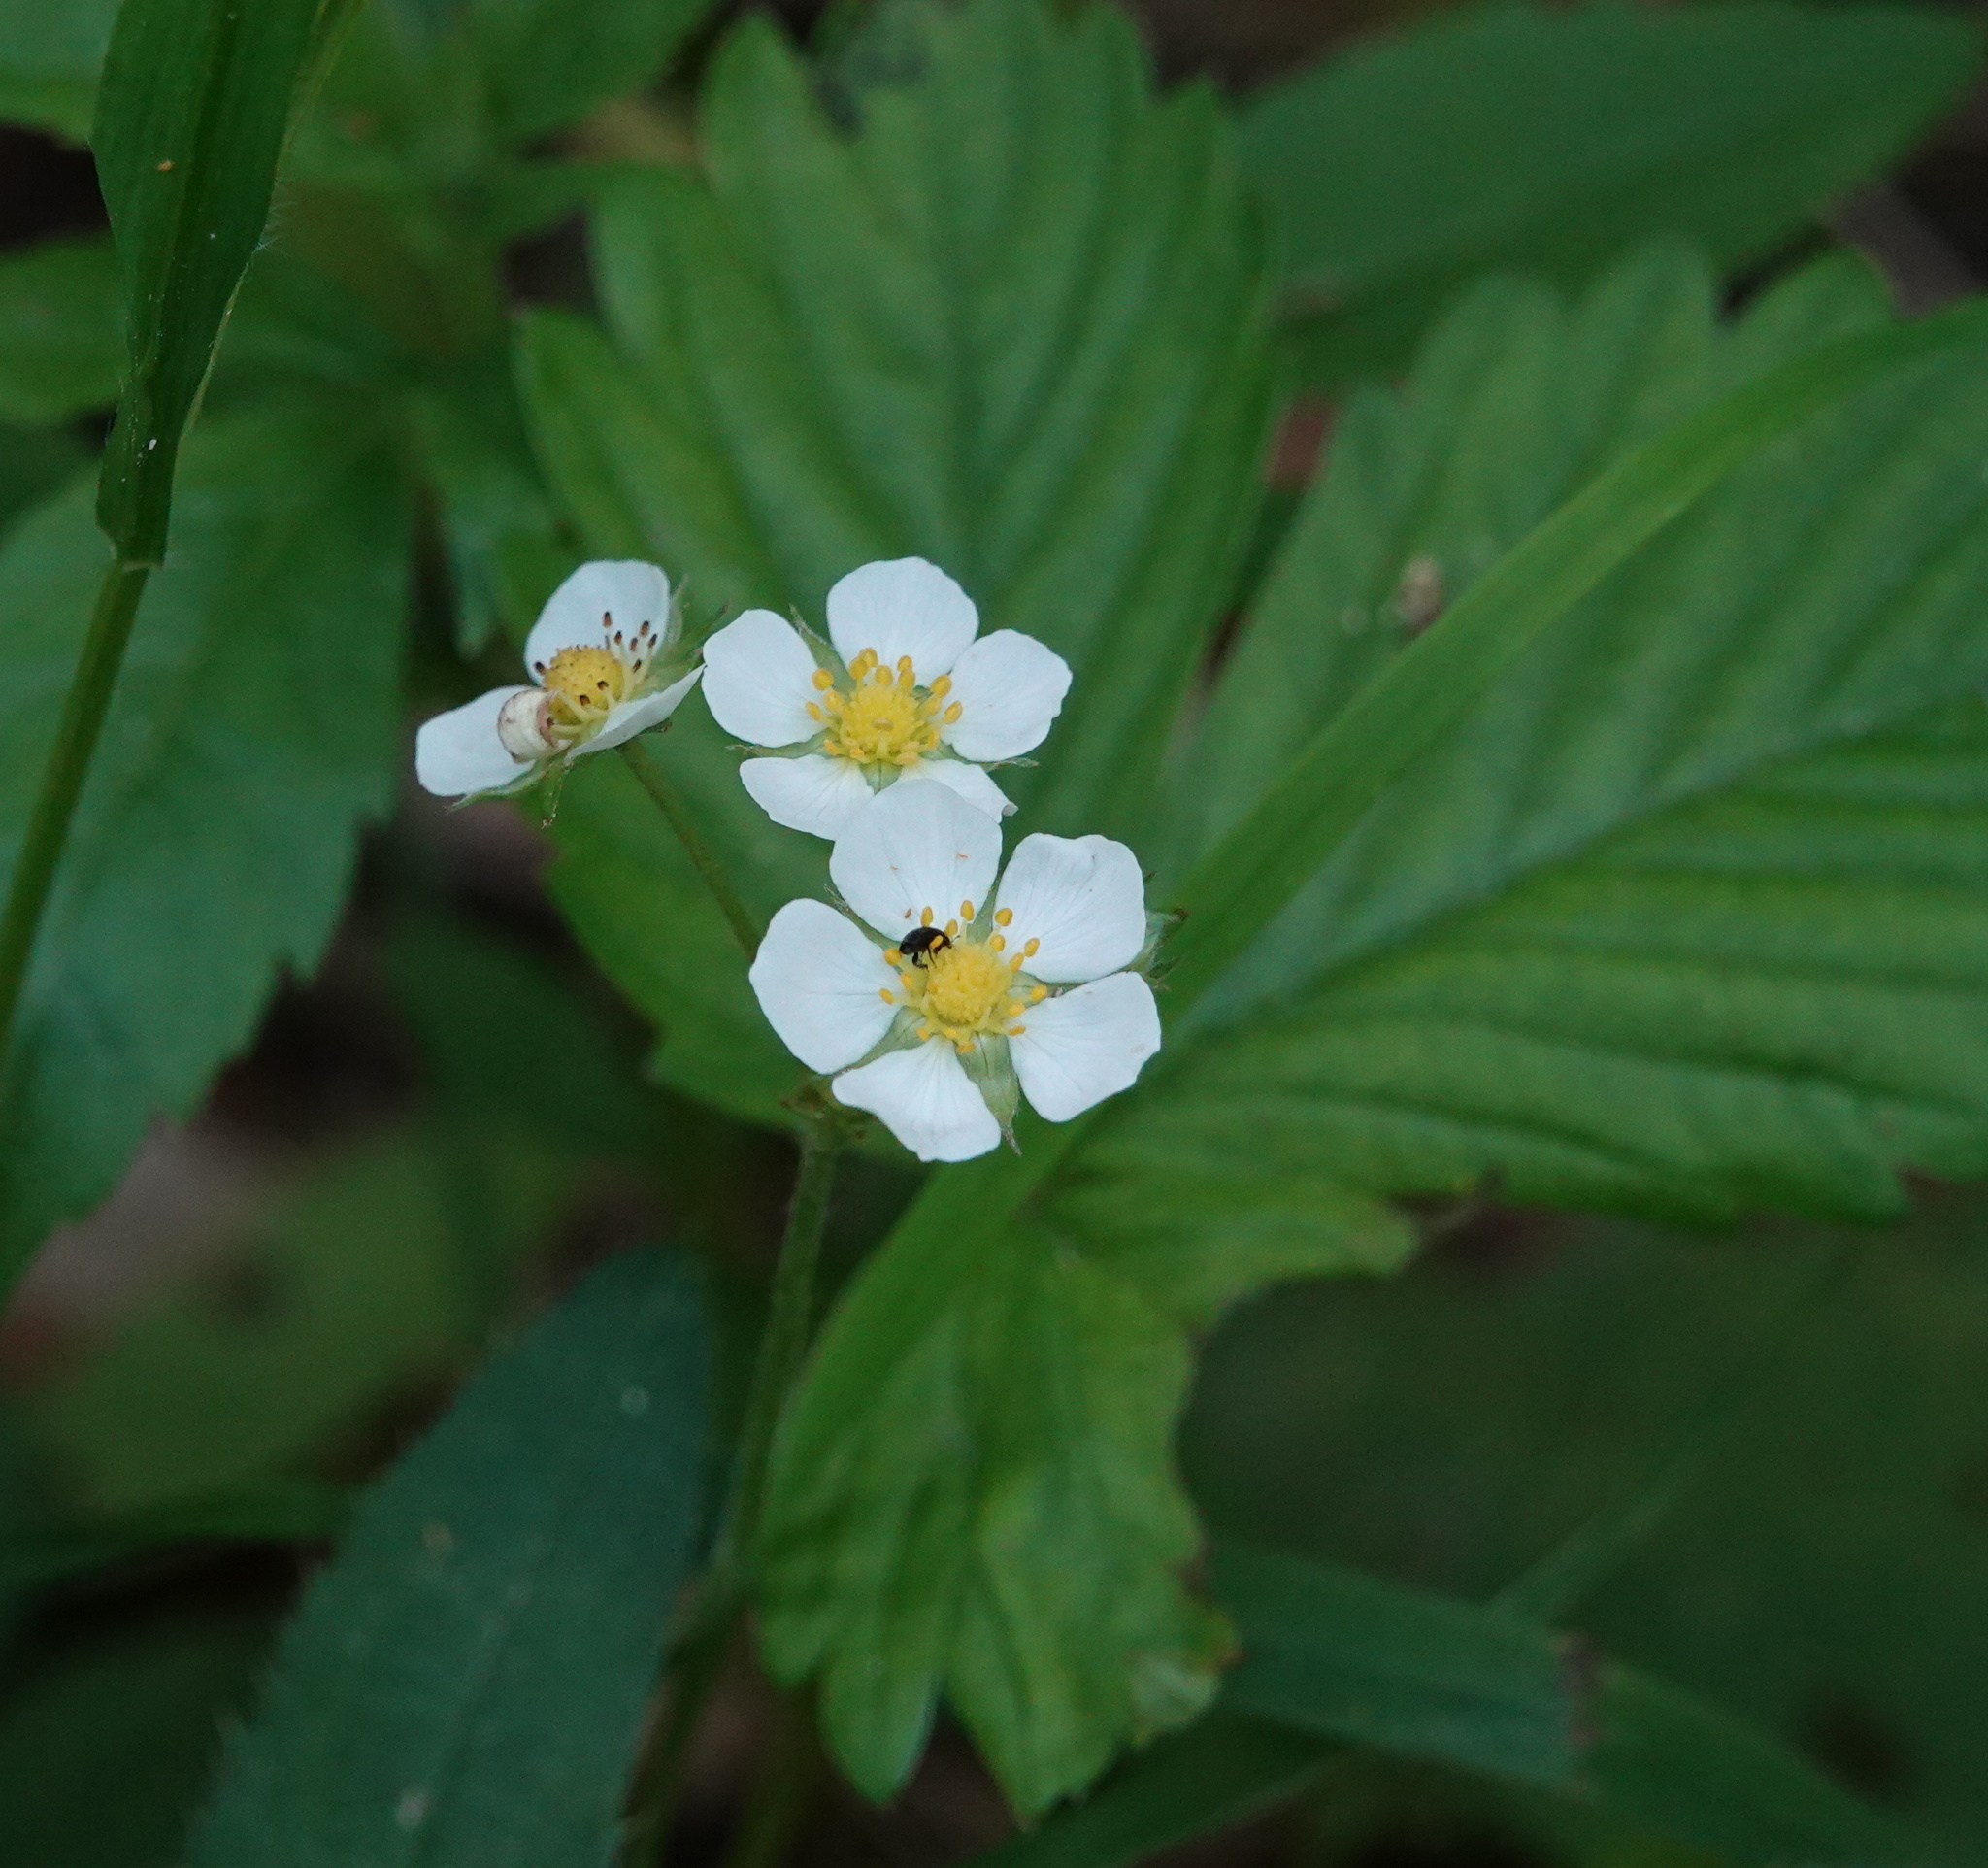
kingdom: Plantae
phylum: Tracheophyta
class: Magnoliopsida
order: Rosales
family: Rosaceae
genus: Fragaria
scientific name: Fragaria vesca
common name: Wild strawberry
